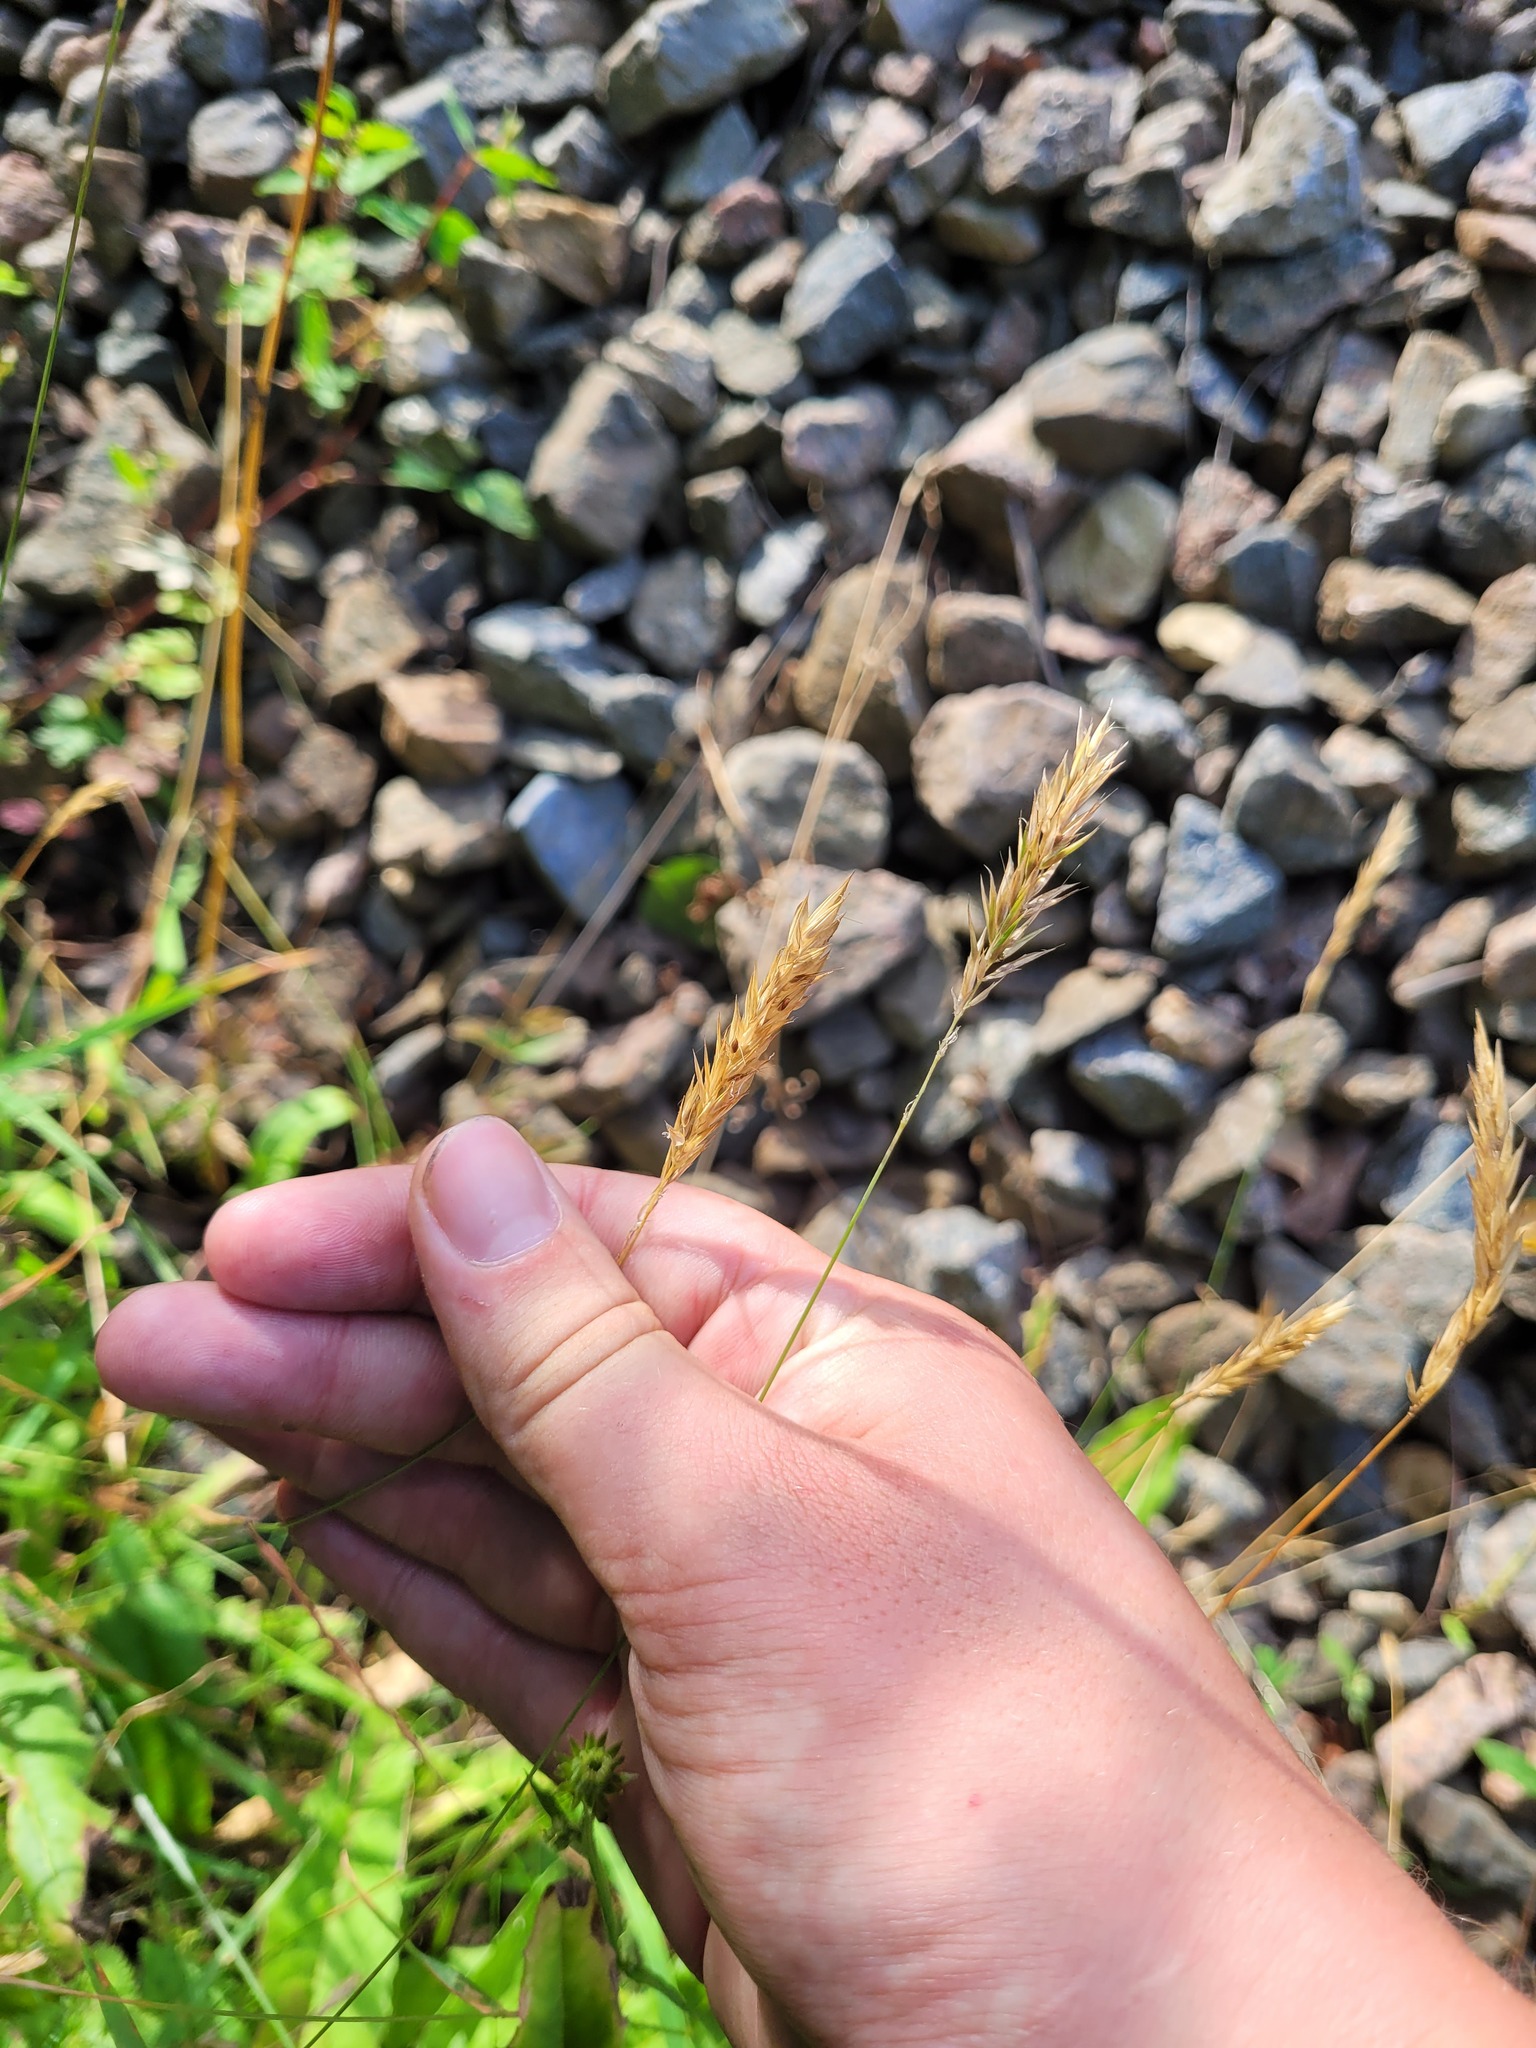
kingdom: Plantae
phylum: Tracheophyta
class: Liliopsida
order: Poales
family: Poaceae
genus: Anthoxanthum
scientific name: Anthoxanthum odoratum
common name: Sweet vernalgrass
